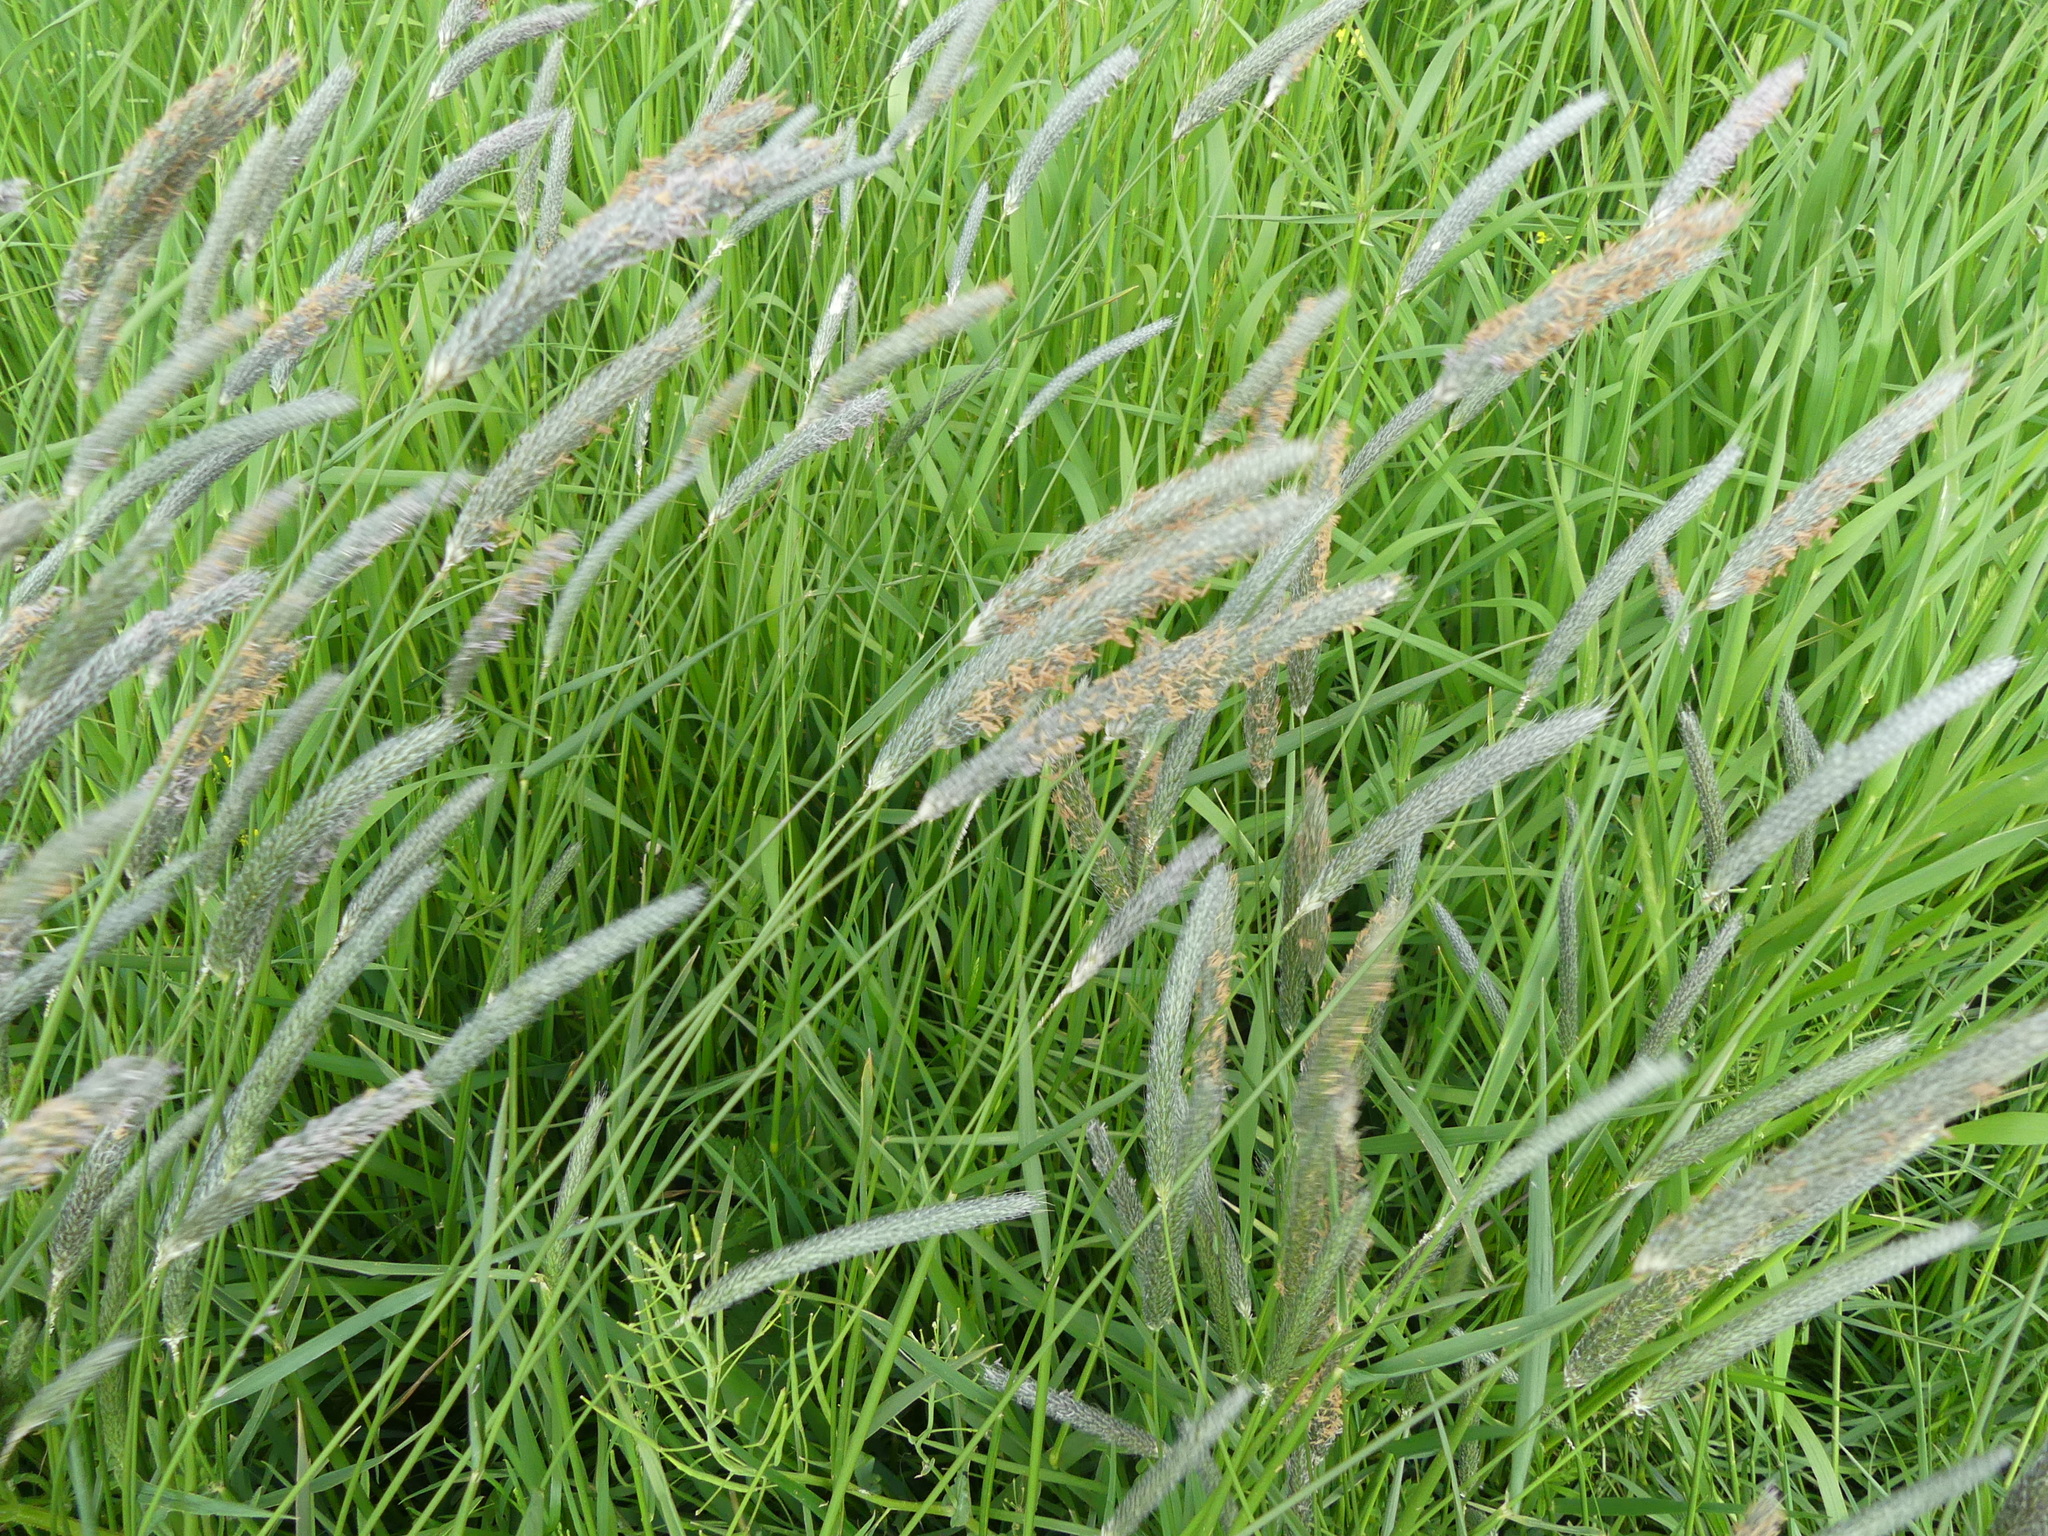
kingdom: Plantae
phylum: Tracheophyta
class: Liliopsida
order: Poales
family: Poaceae
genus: Alopecurus
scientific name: Alopecurus pratensis
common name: Meadow foxtail
